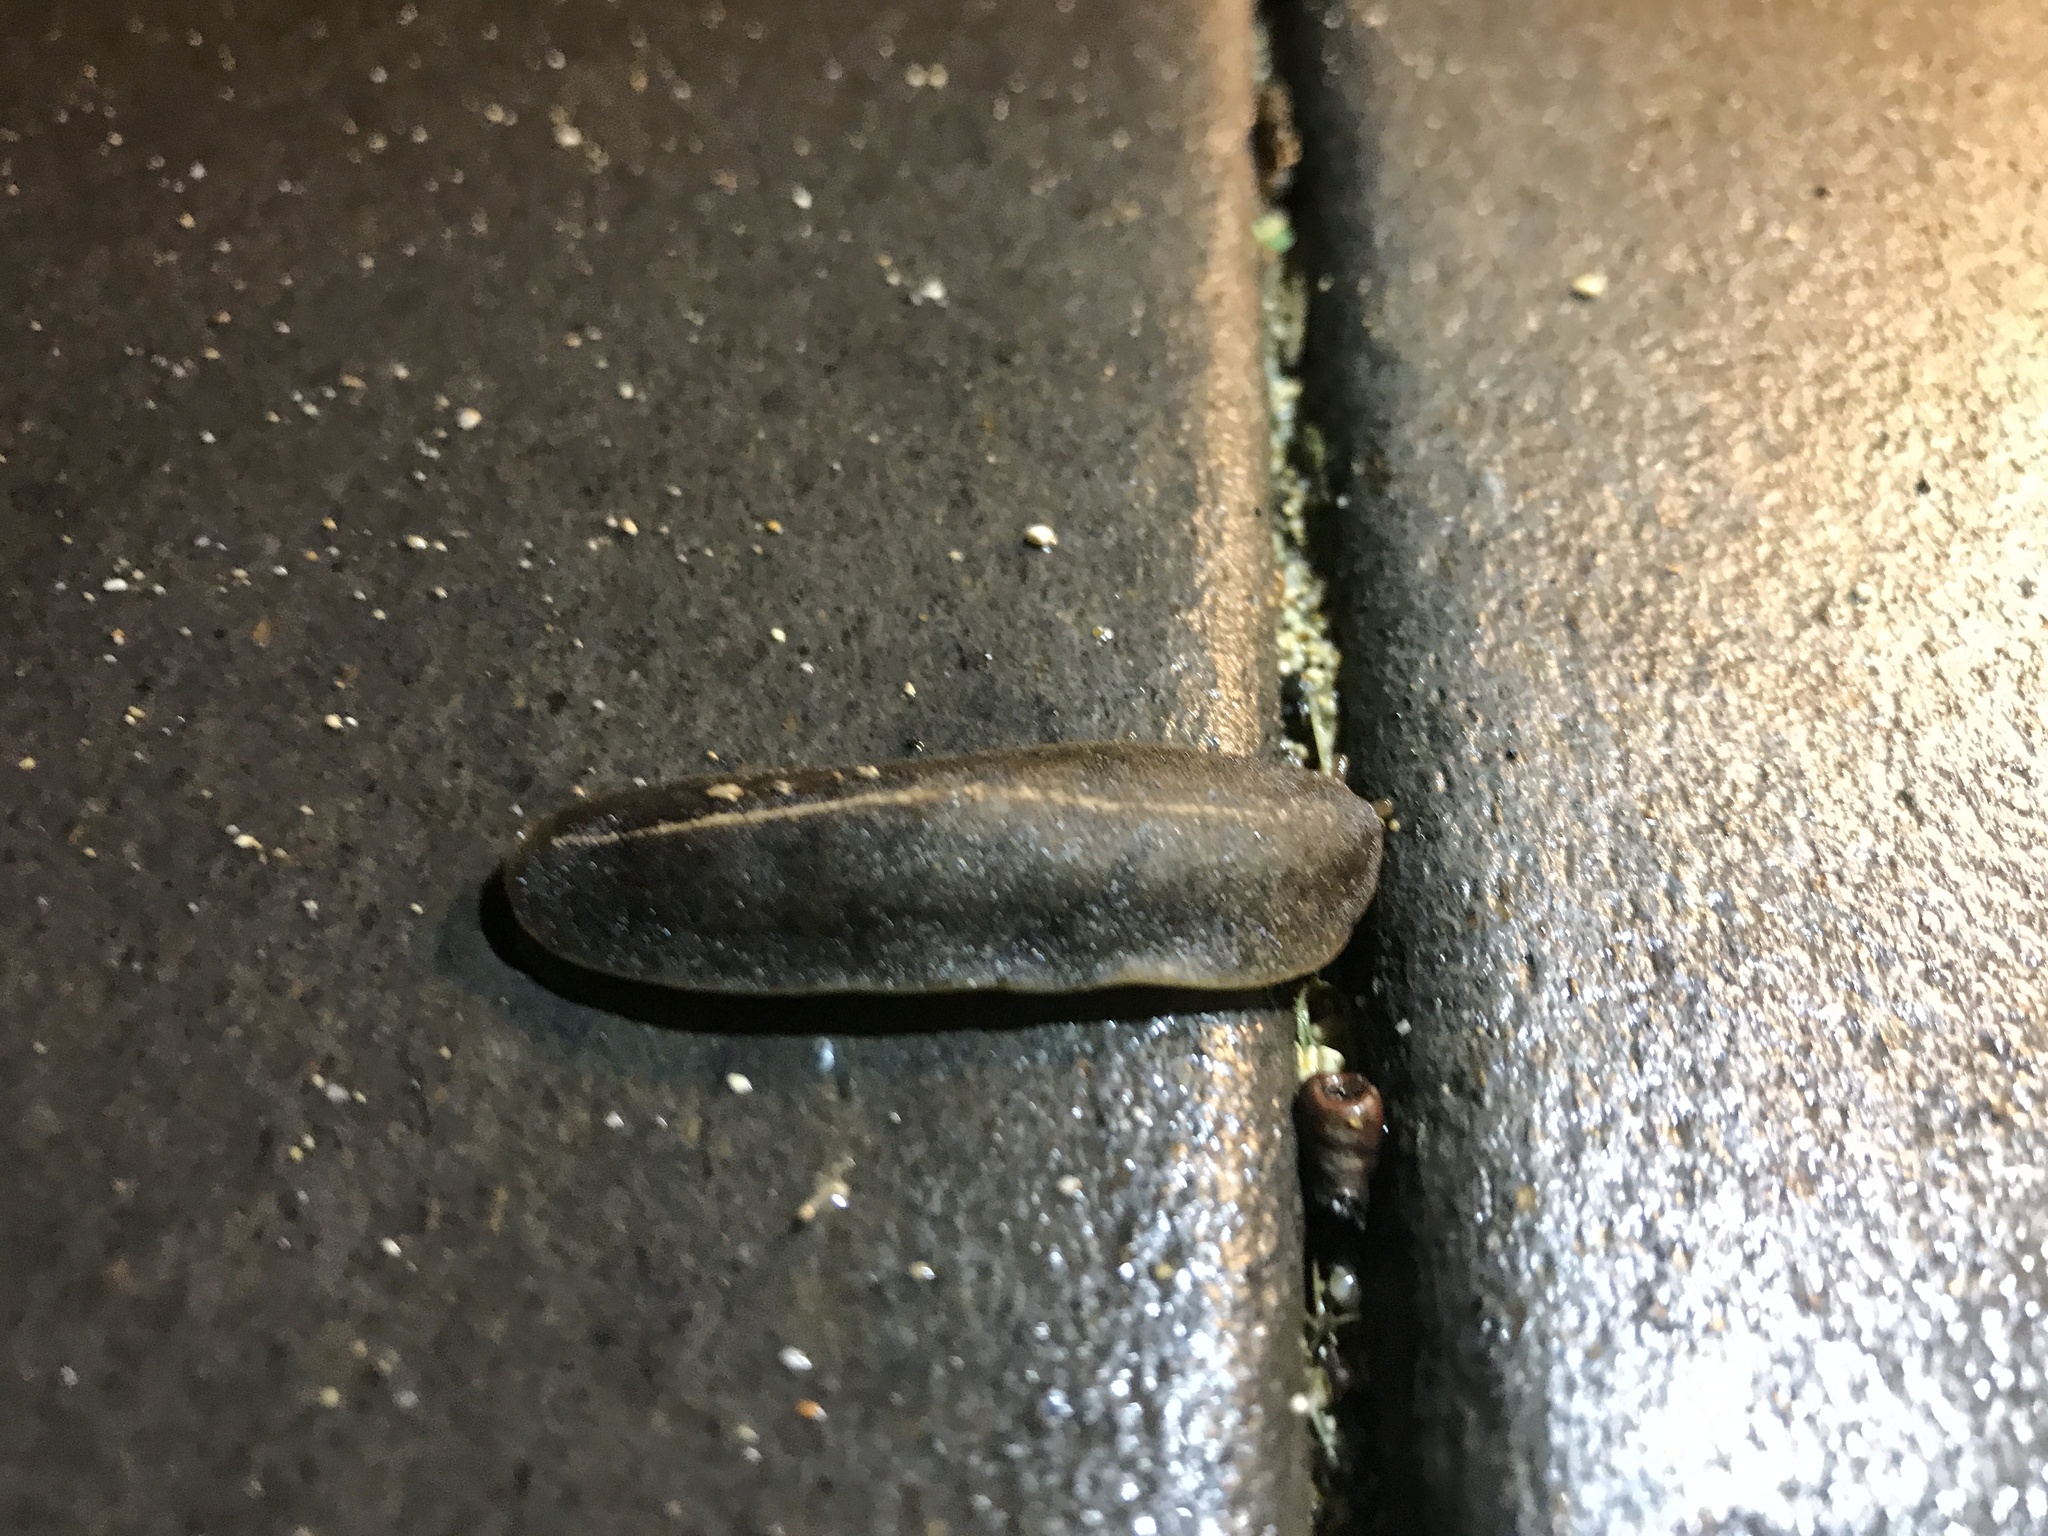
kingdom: Animalia
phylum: Mollusca
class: Gastropoda
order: Systellommatophora
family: Veronicellidae
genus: Laevicaulis
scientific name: Laevicaulis alte
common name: Tropical leatherleaf
